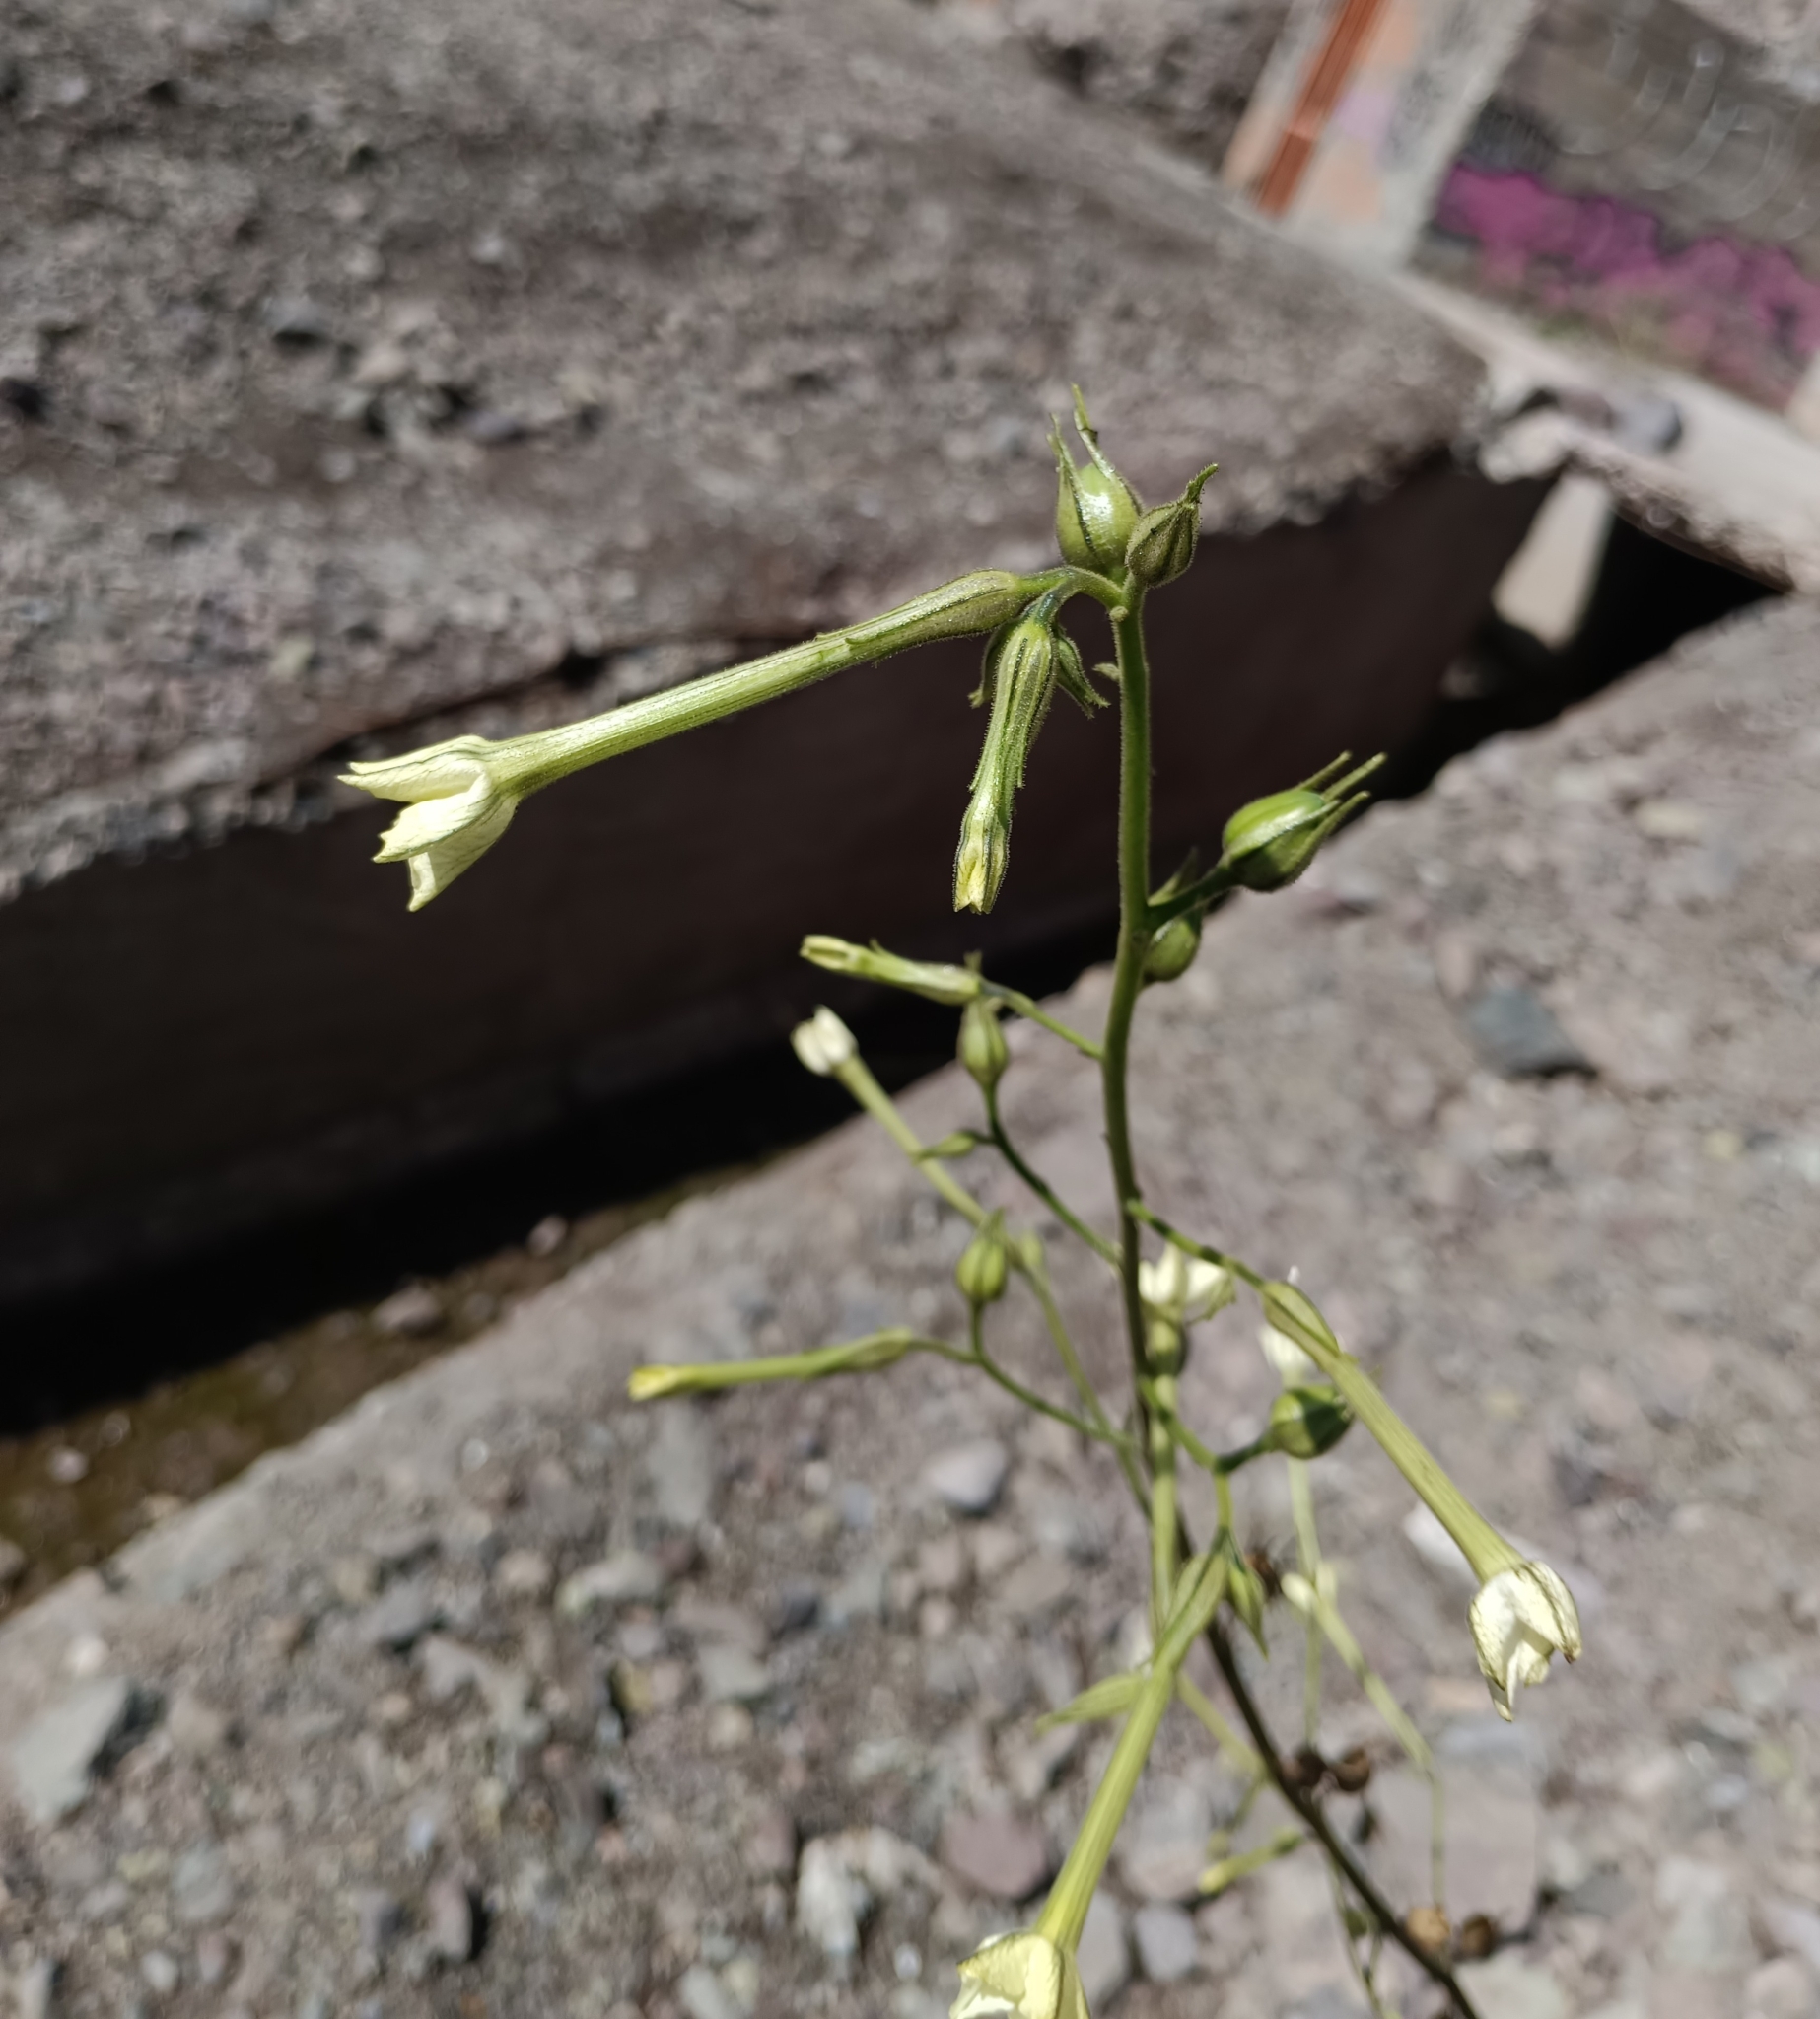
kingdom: Plantae
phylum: Tracheophyta
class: Magnoliopsida
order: Solanales
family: Solanaceae
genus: Nicotiana
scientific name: Nicotiana acuminata
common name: Manyflower tobacco
